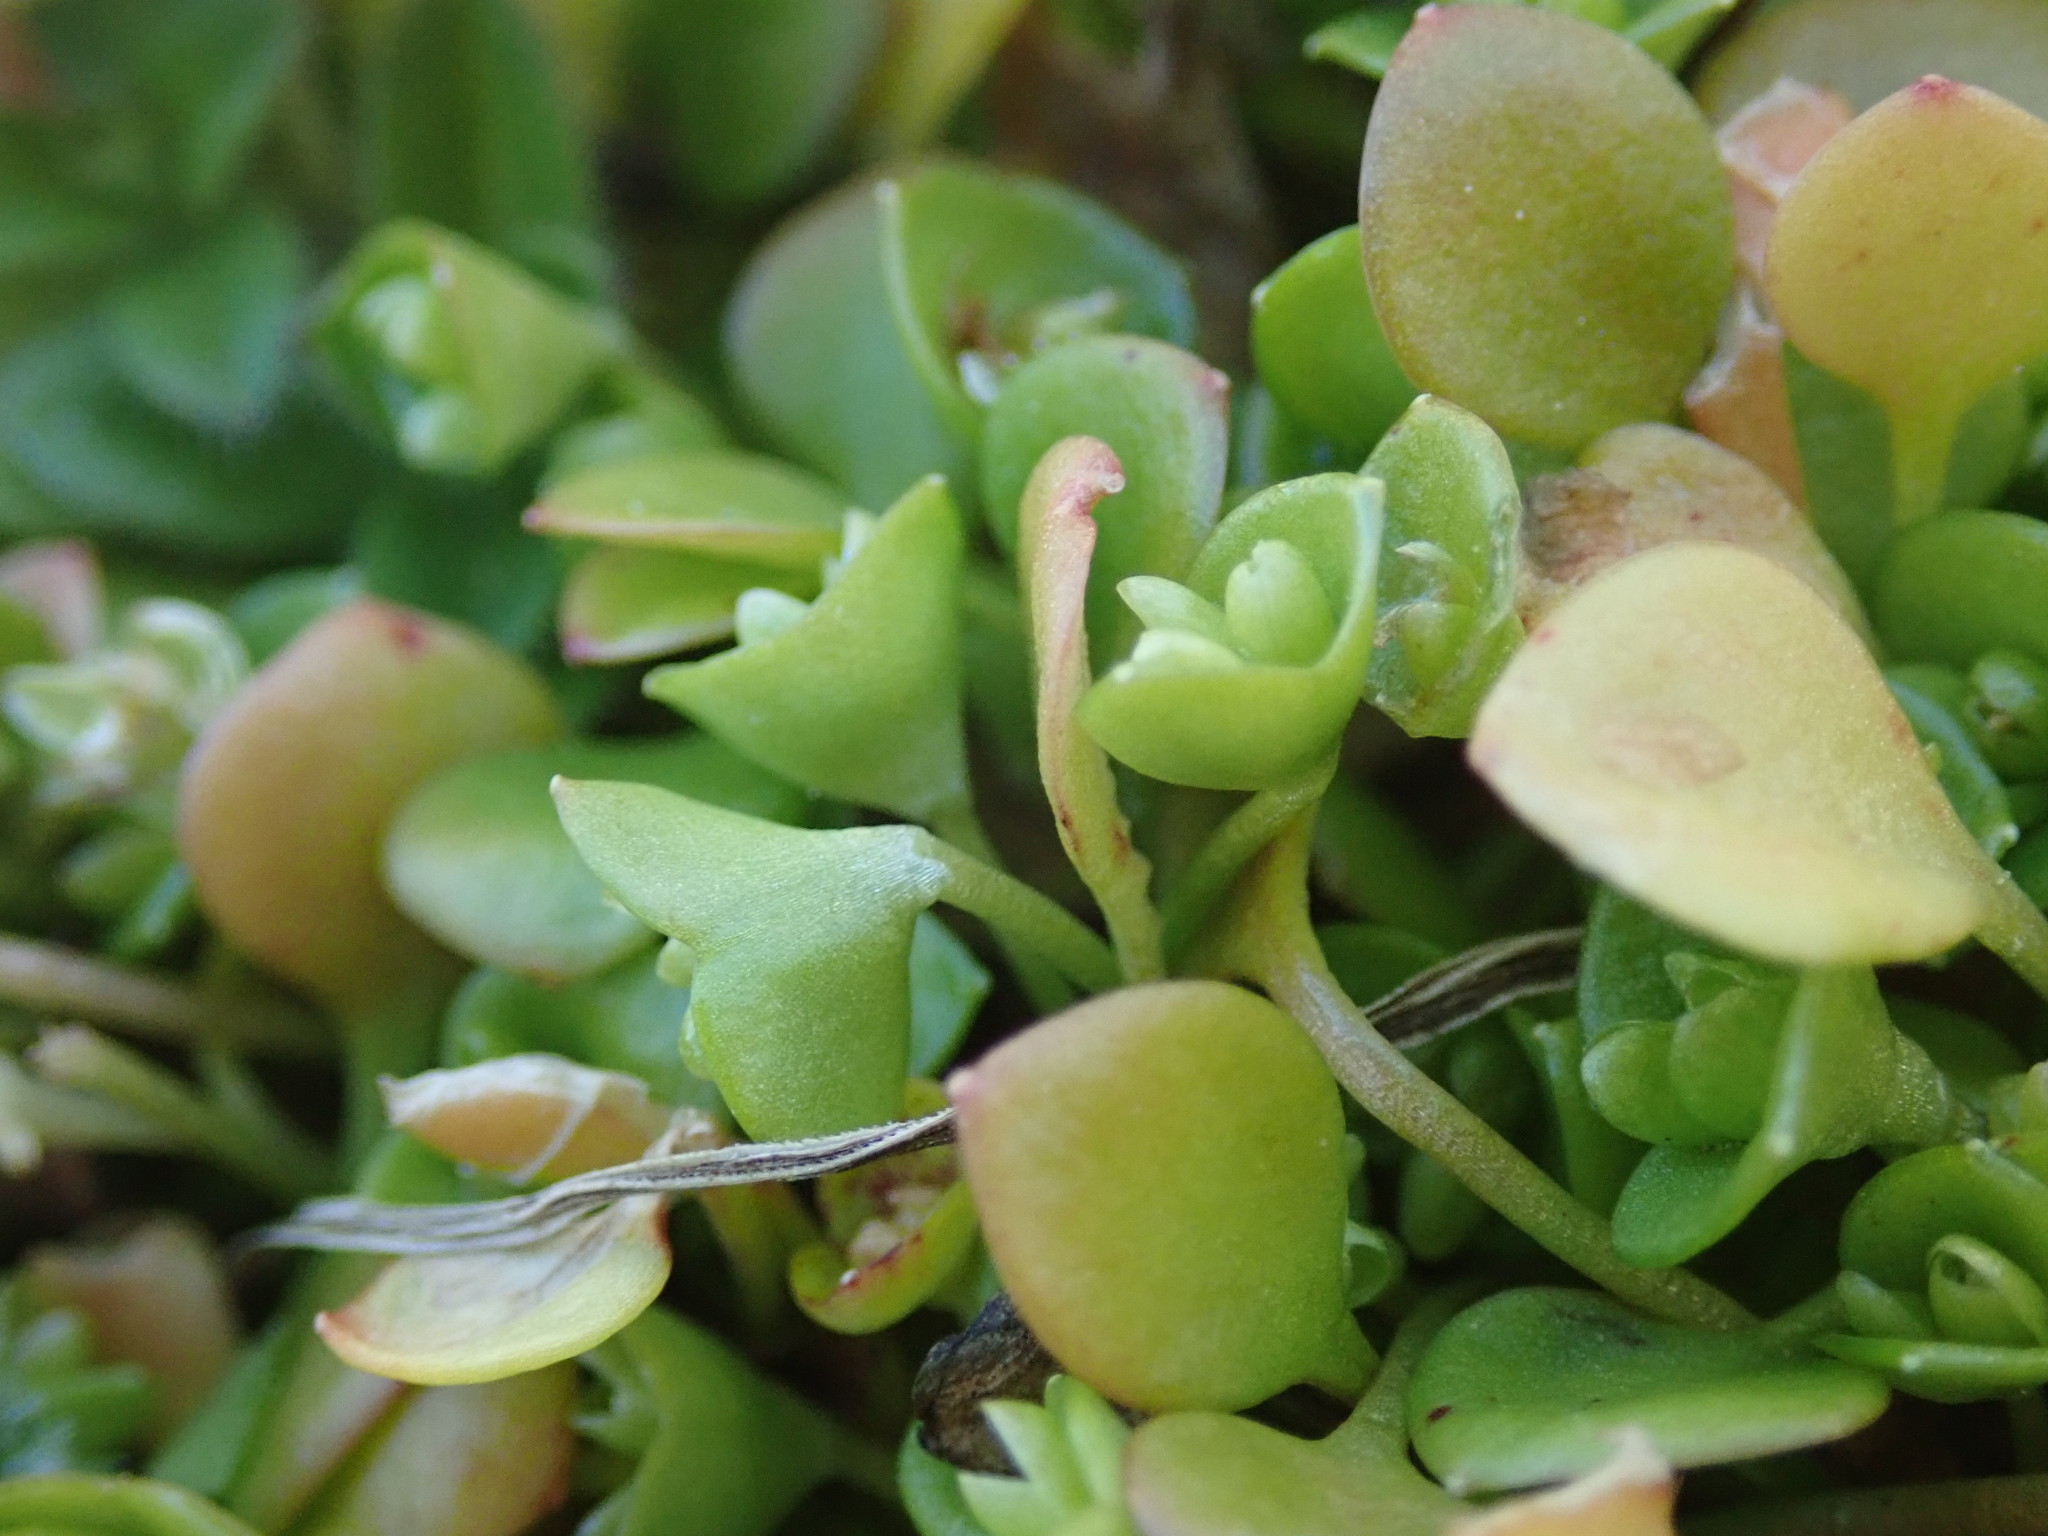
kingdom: Plantae
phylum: Tracheophyta
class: Magnoliopsida
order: Caryophyllales
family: Montiaceae
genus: Claytonia
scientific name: Claytonia rubra
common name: Erubescent miner's-lettuce
